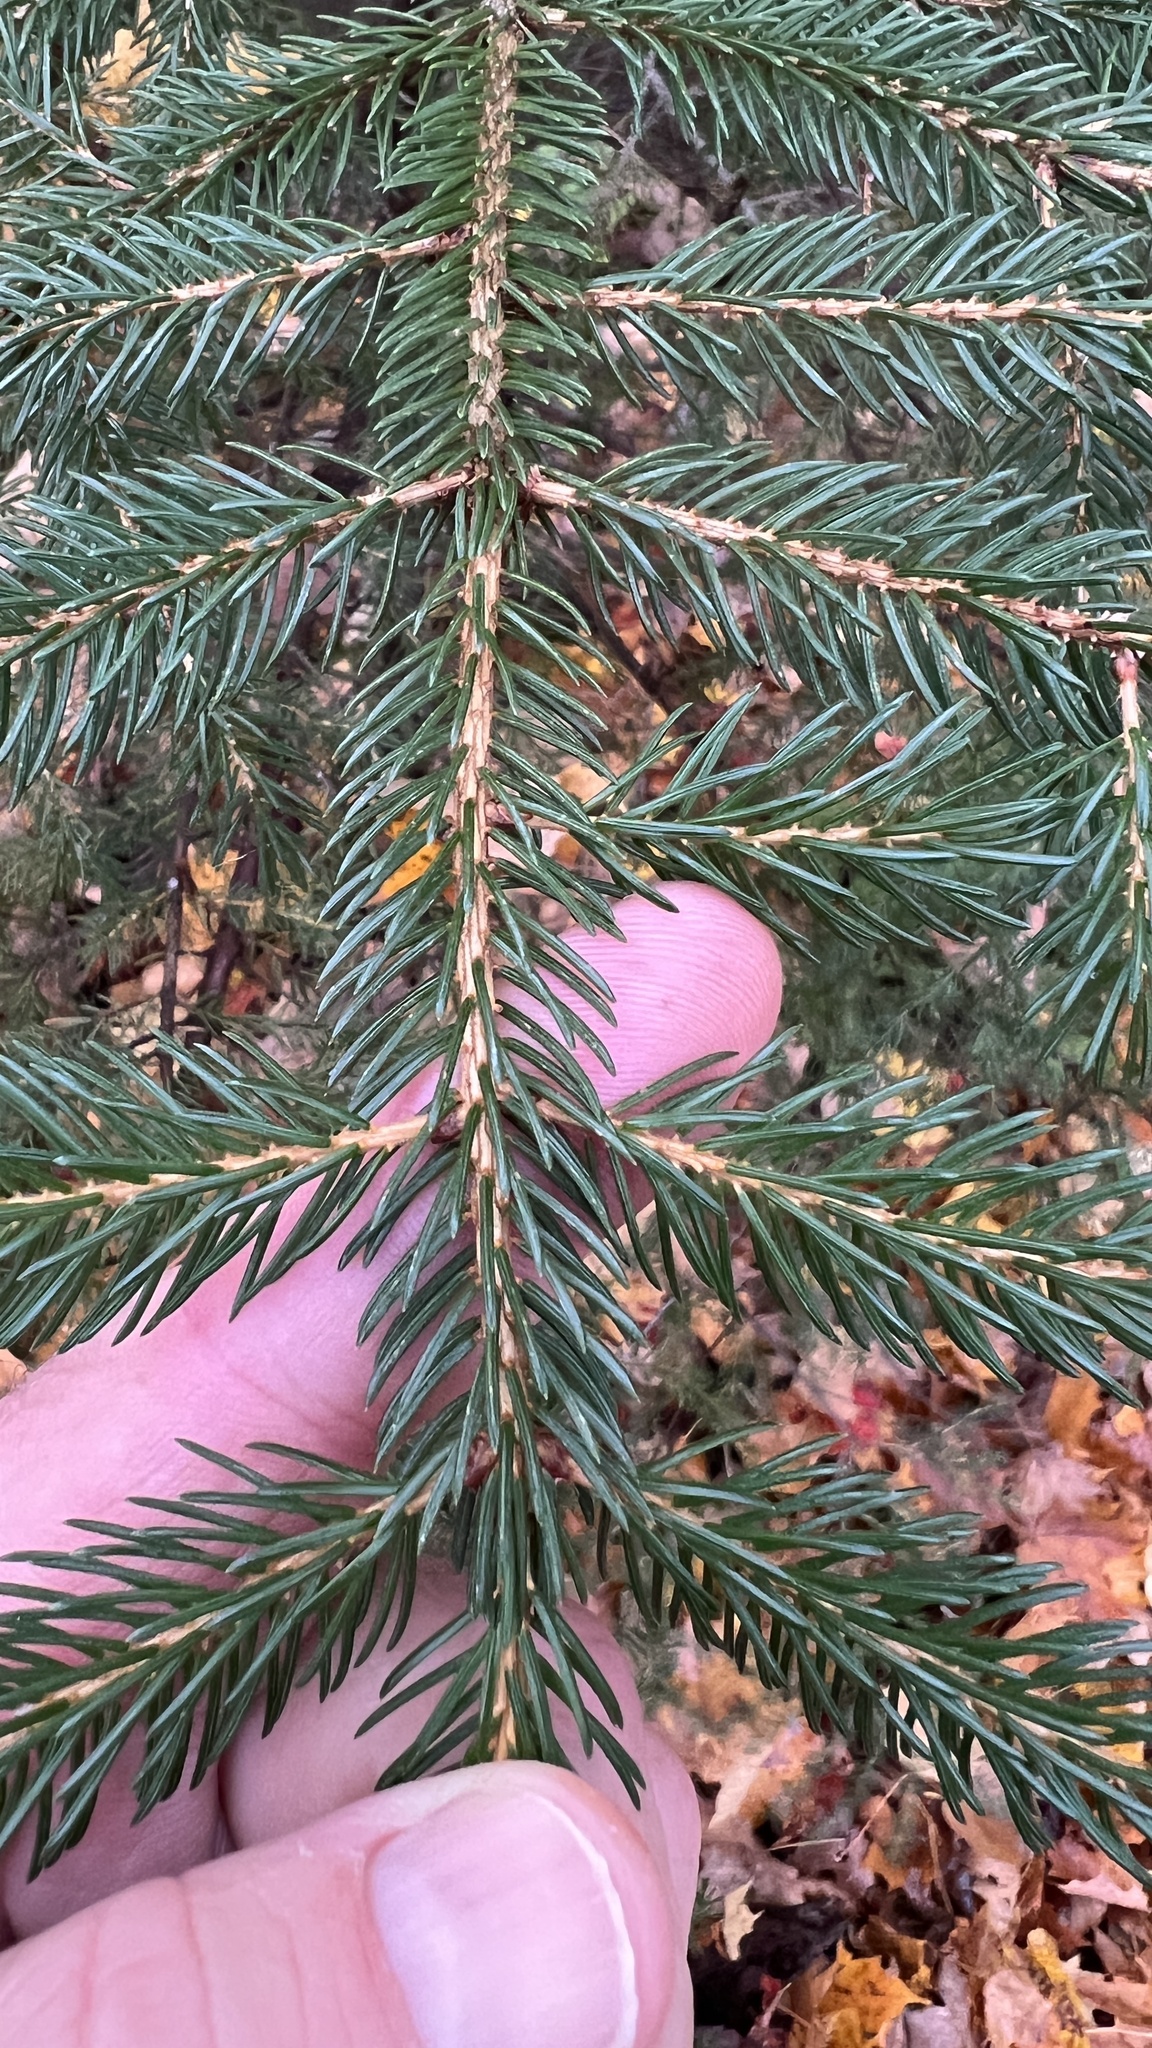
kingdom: Plantae
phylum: Tracheophyta
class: Pinopsida
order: Pinales
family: Pinaceae
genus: Picea
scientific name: Picea rubens
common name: Red spruce
